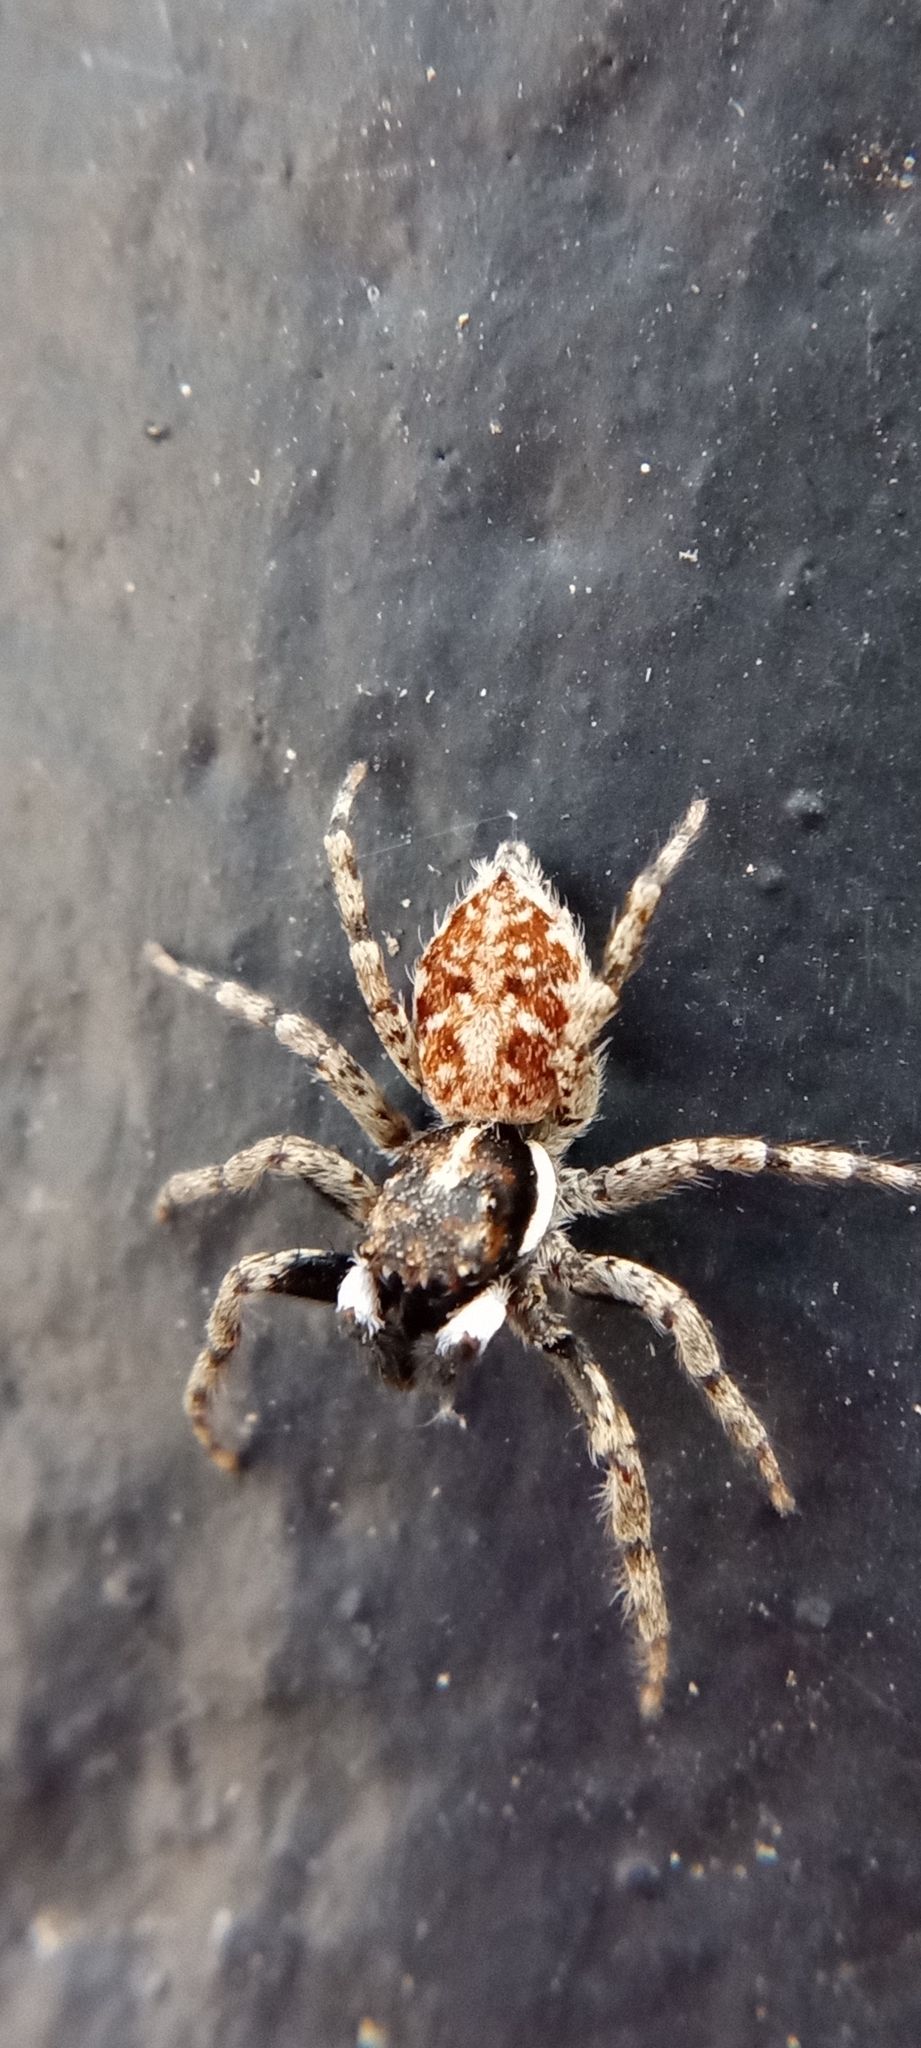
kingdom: Animalia
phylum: Arthropoda
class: Arachnida
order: Araneae
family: Salticidae
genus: Menemerus
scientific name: Menemerus semilimbatus
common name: Jumping spider
